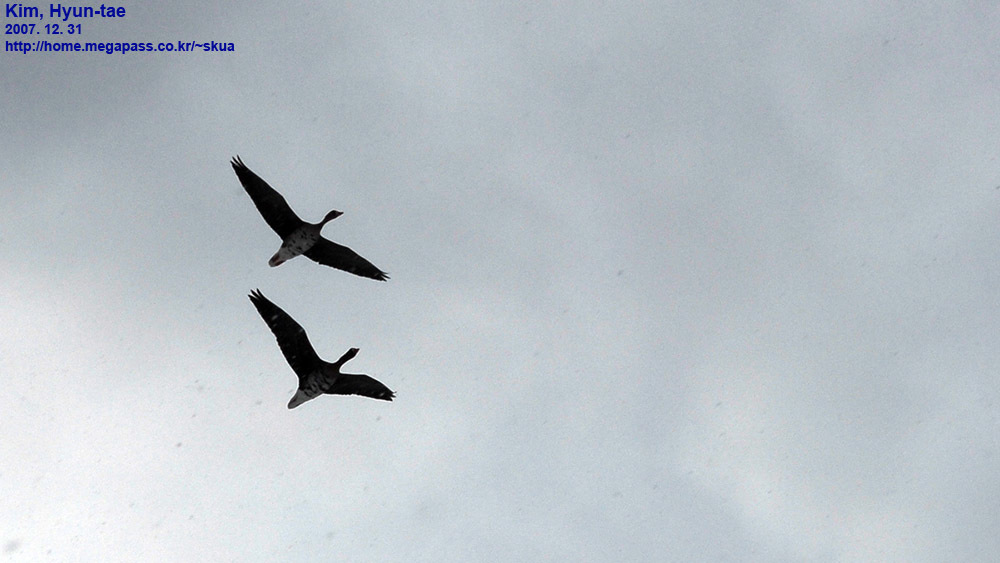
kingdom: Animalia
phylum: Chordata
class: Aves
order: Anseriformes
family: Anatidae
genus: Anser
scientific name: Anser albifrons
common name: Greater white-fronted goose
